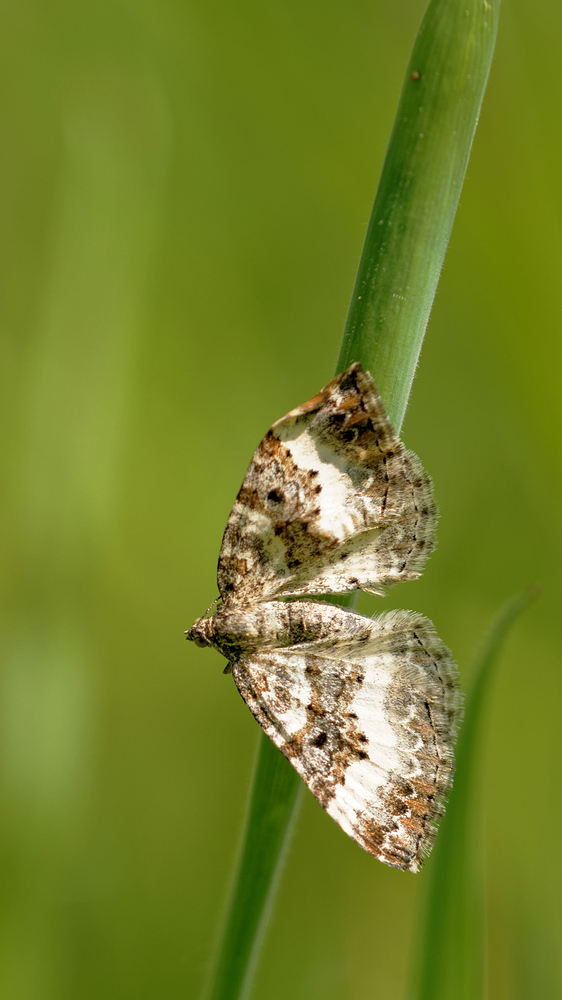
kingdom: Animalia
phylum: Arthropoda
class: Insecta
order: Lepidoptera
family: Geometridae
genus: Epirrhoe
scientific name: Epirrhoe rivata
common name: Wood carpet
